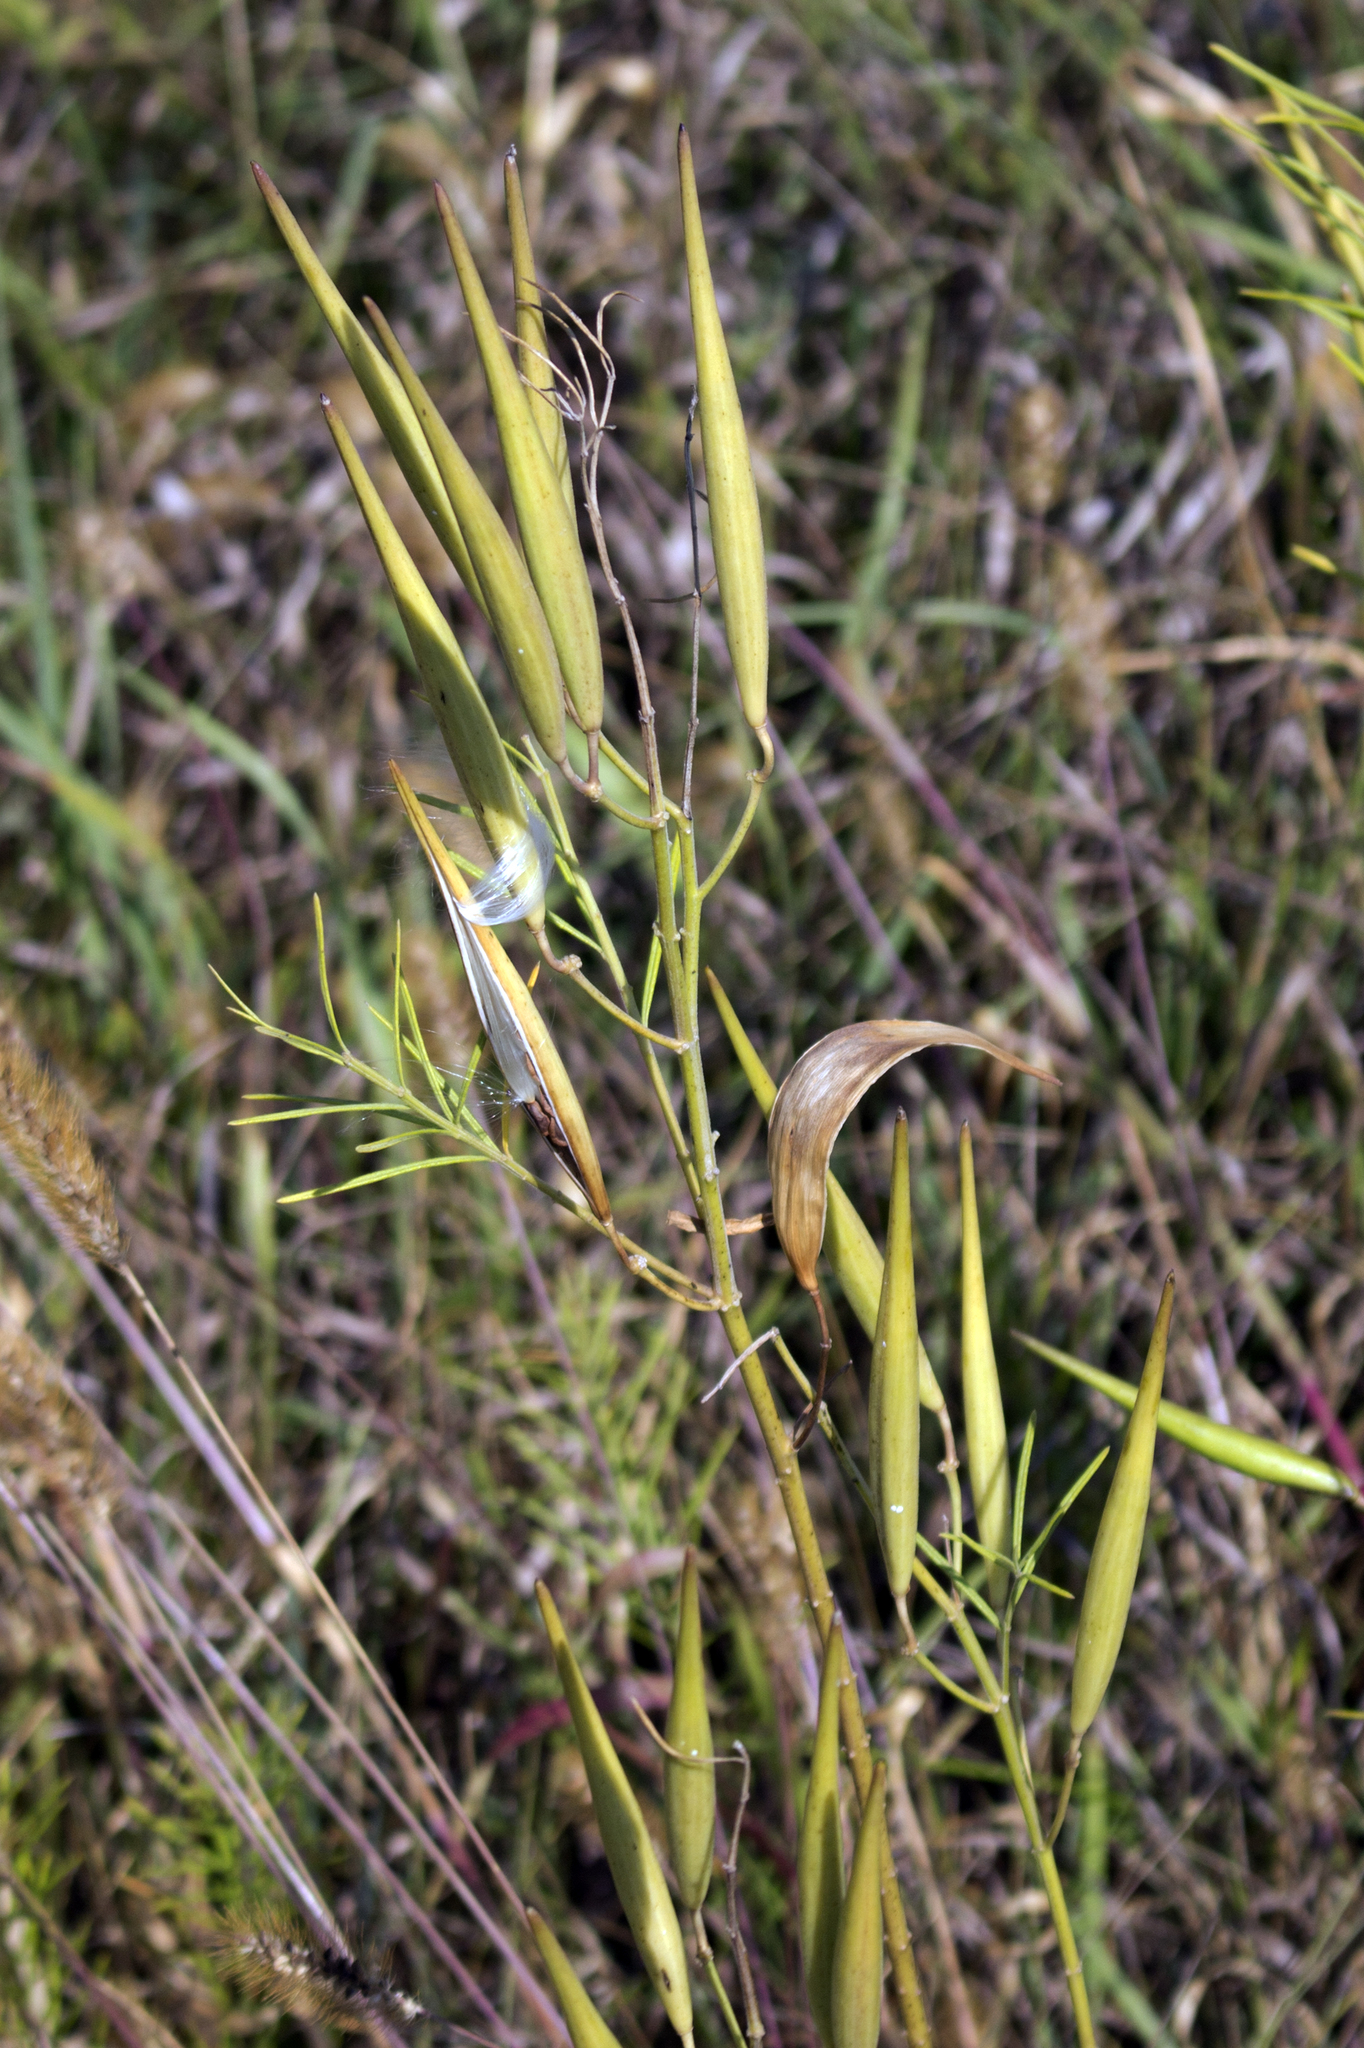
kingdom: Plantae
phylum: Tracheophyta
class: Magnoliopsida
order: Gentianales
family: Apocynaceae
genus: Asclepias
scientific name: Asclepias verticillata
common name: Eastern whorled milkweed
